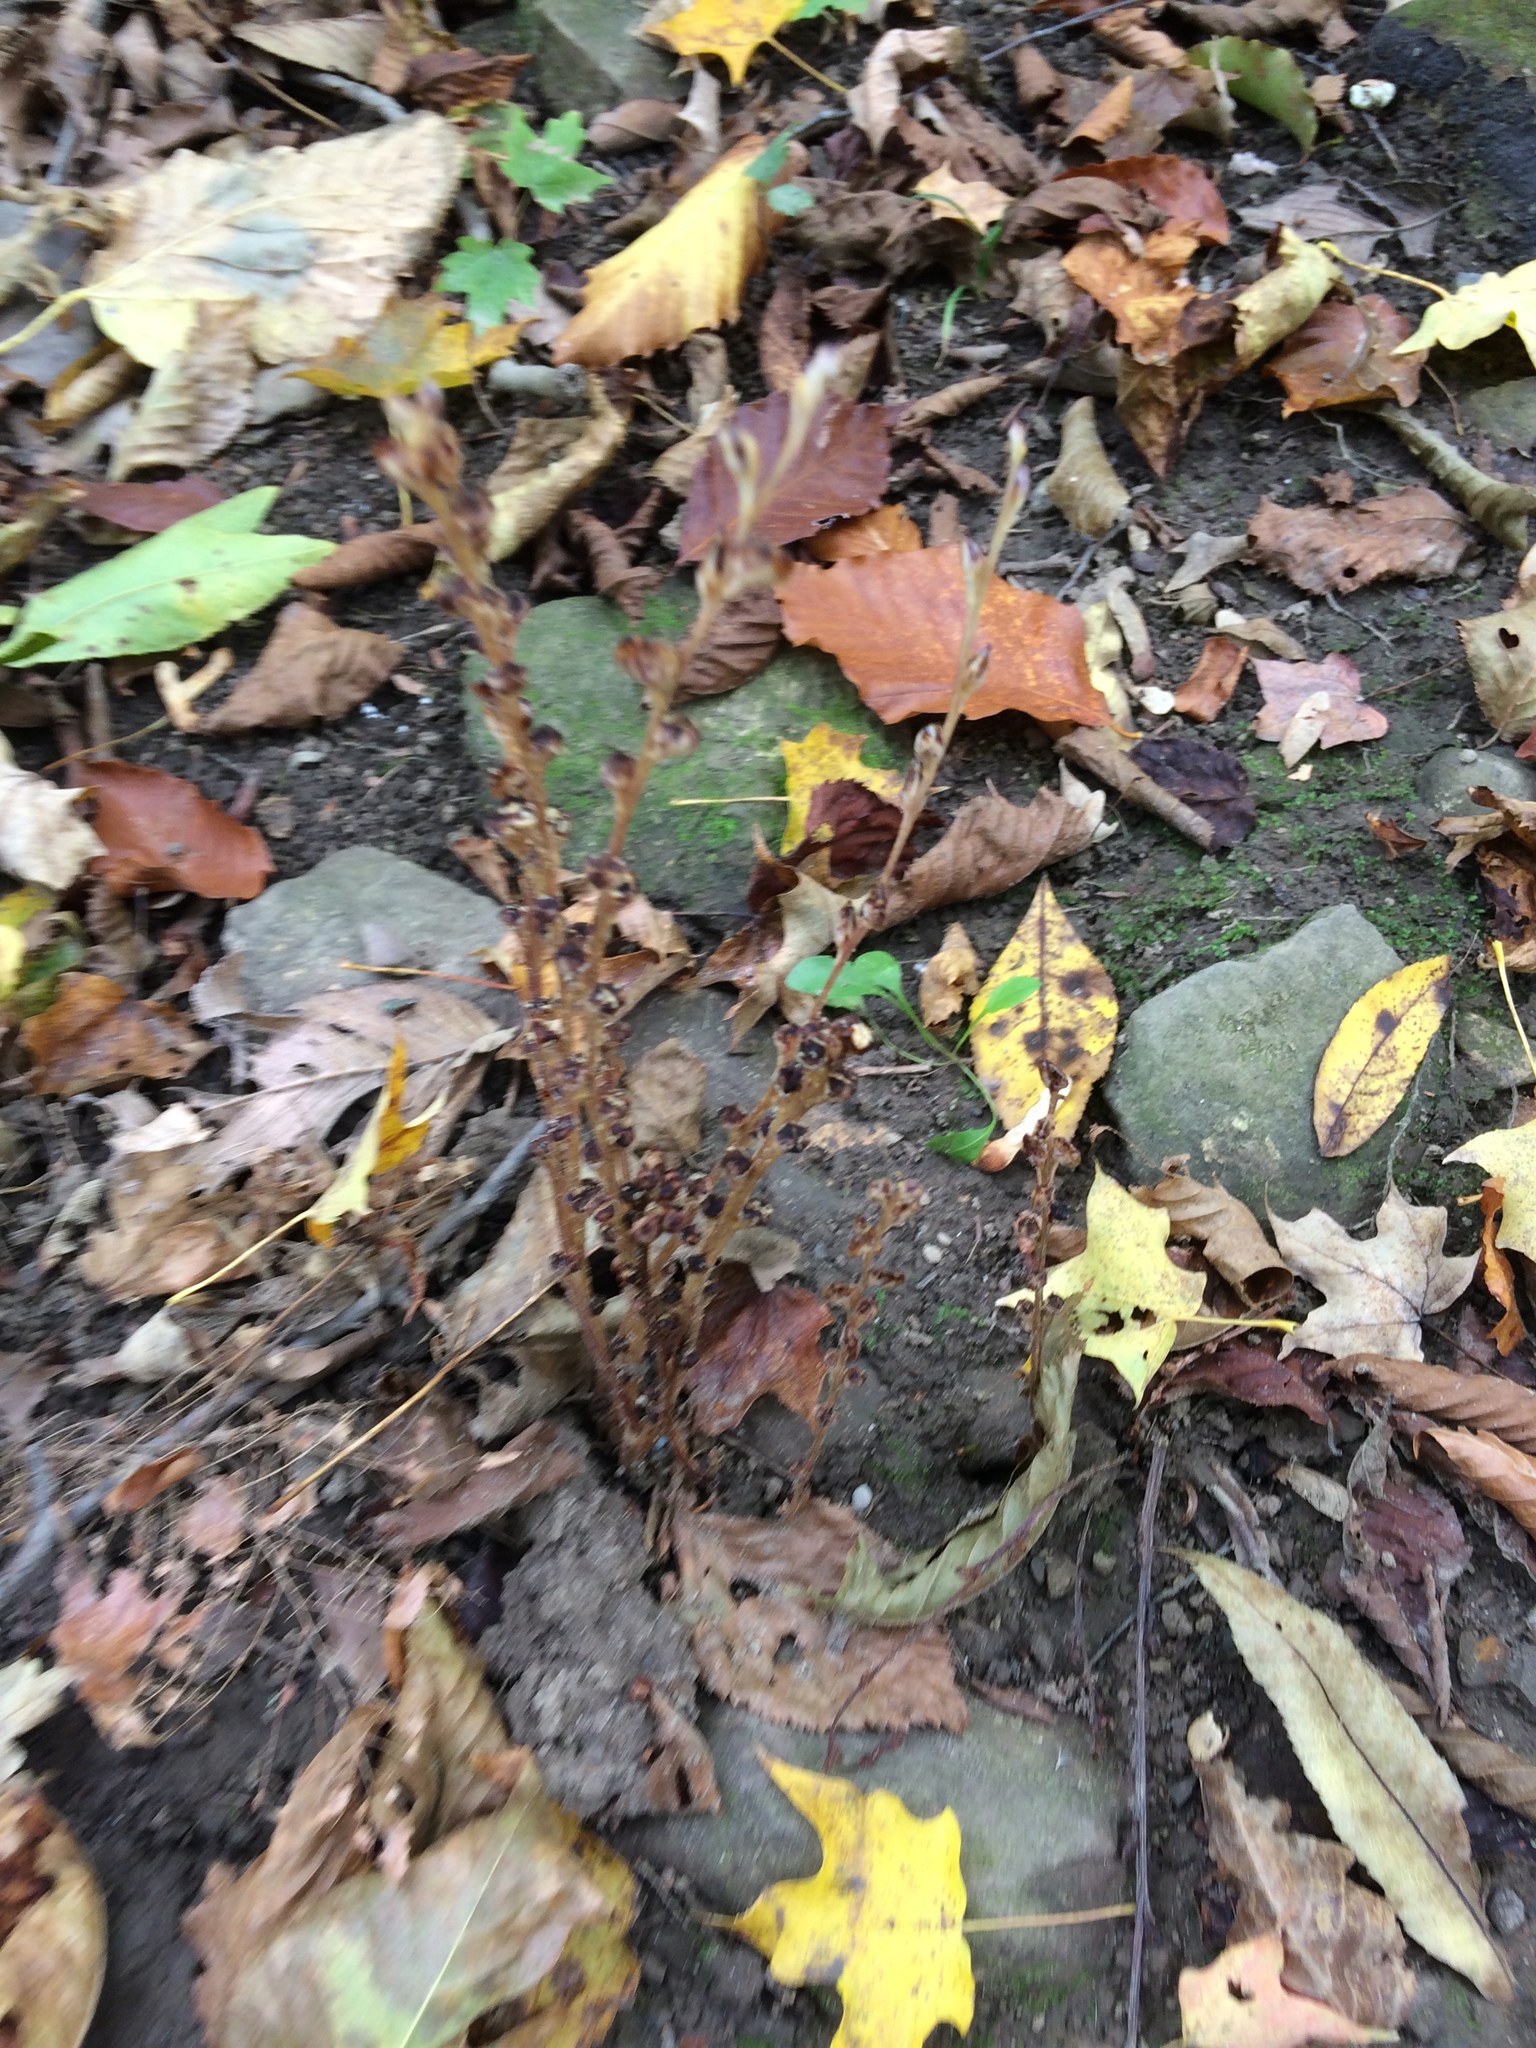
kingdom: Plantae
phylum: Tracheophyta
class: Magnoliopsida
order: Lamiales
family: Orobanchaceae
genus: Epifagus
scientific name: Epifagus virginiana
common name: Beechdrops
